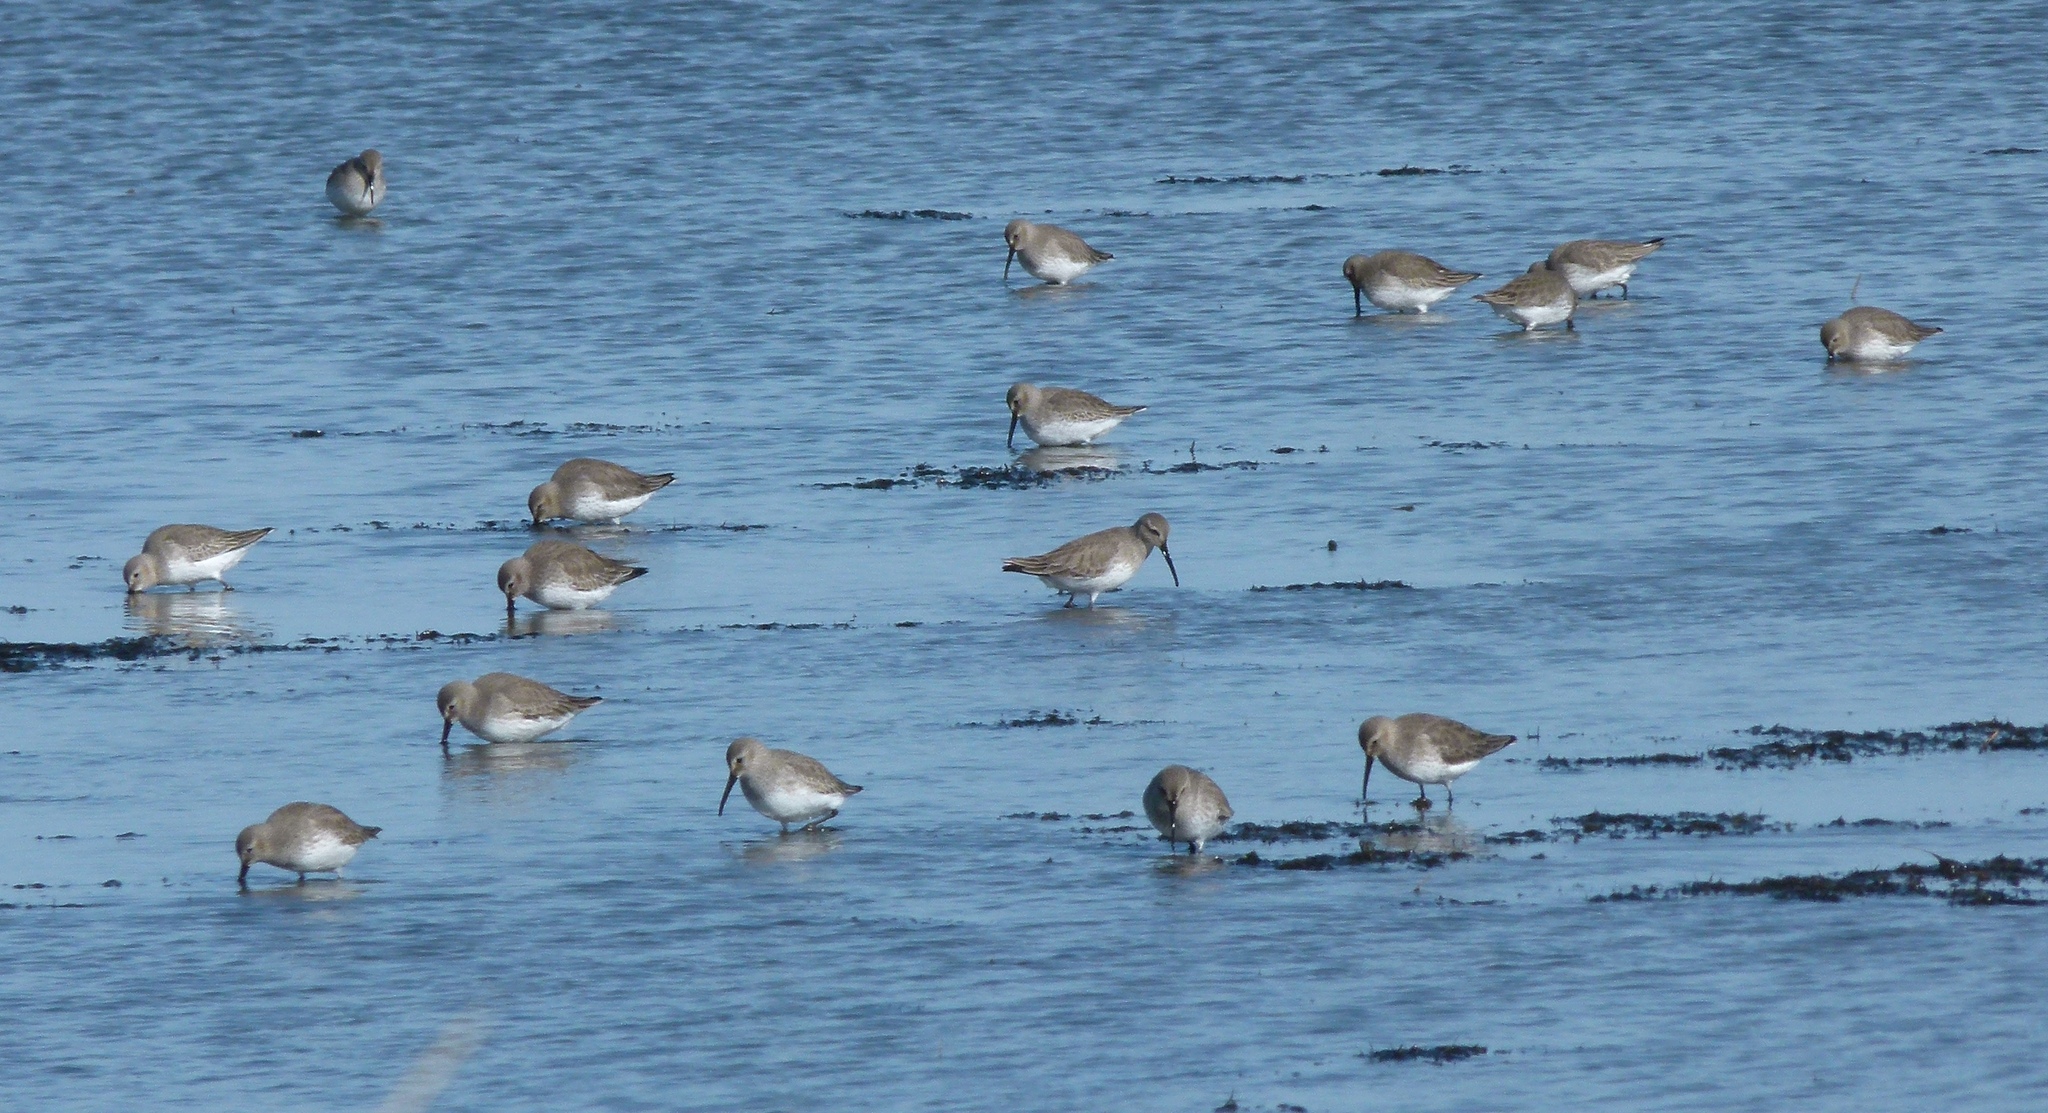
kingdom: Animalia
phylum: Chordata
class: Aves
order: Charadriiformes
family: Scolopacidae
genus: Calidris
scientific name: Calidris alpina
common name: Dunlin
